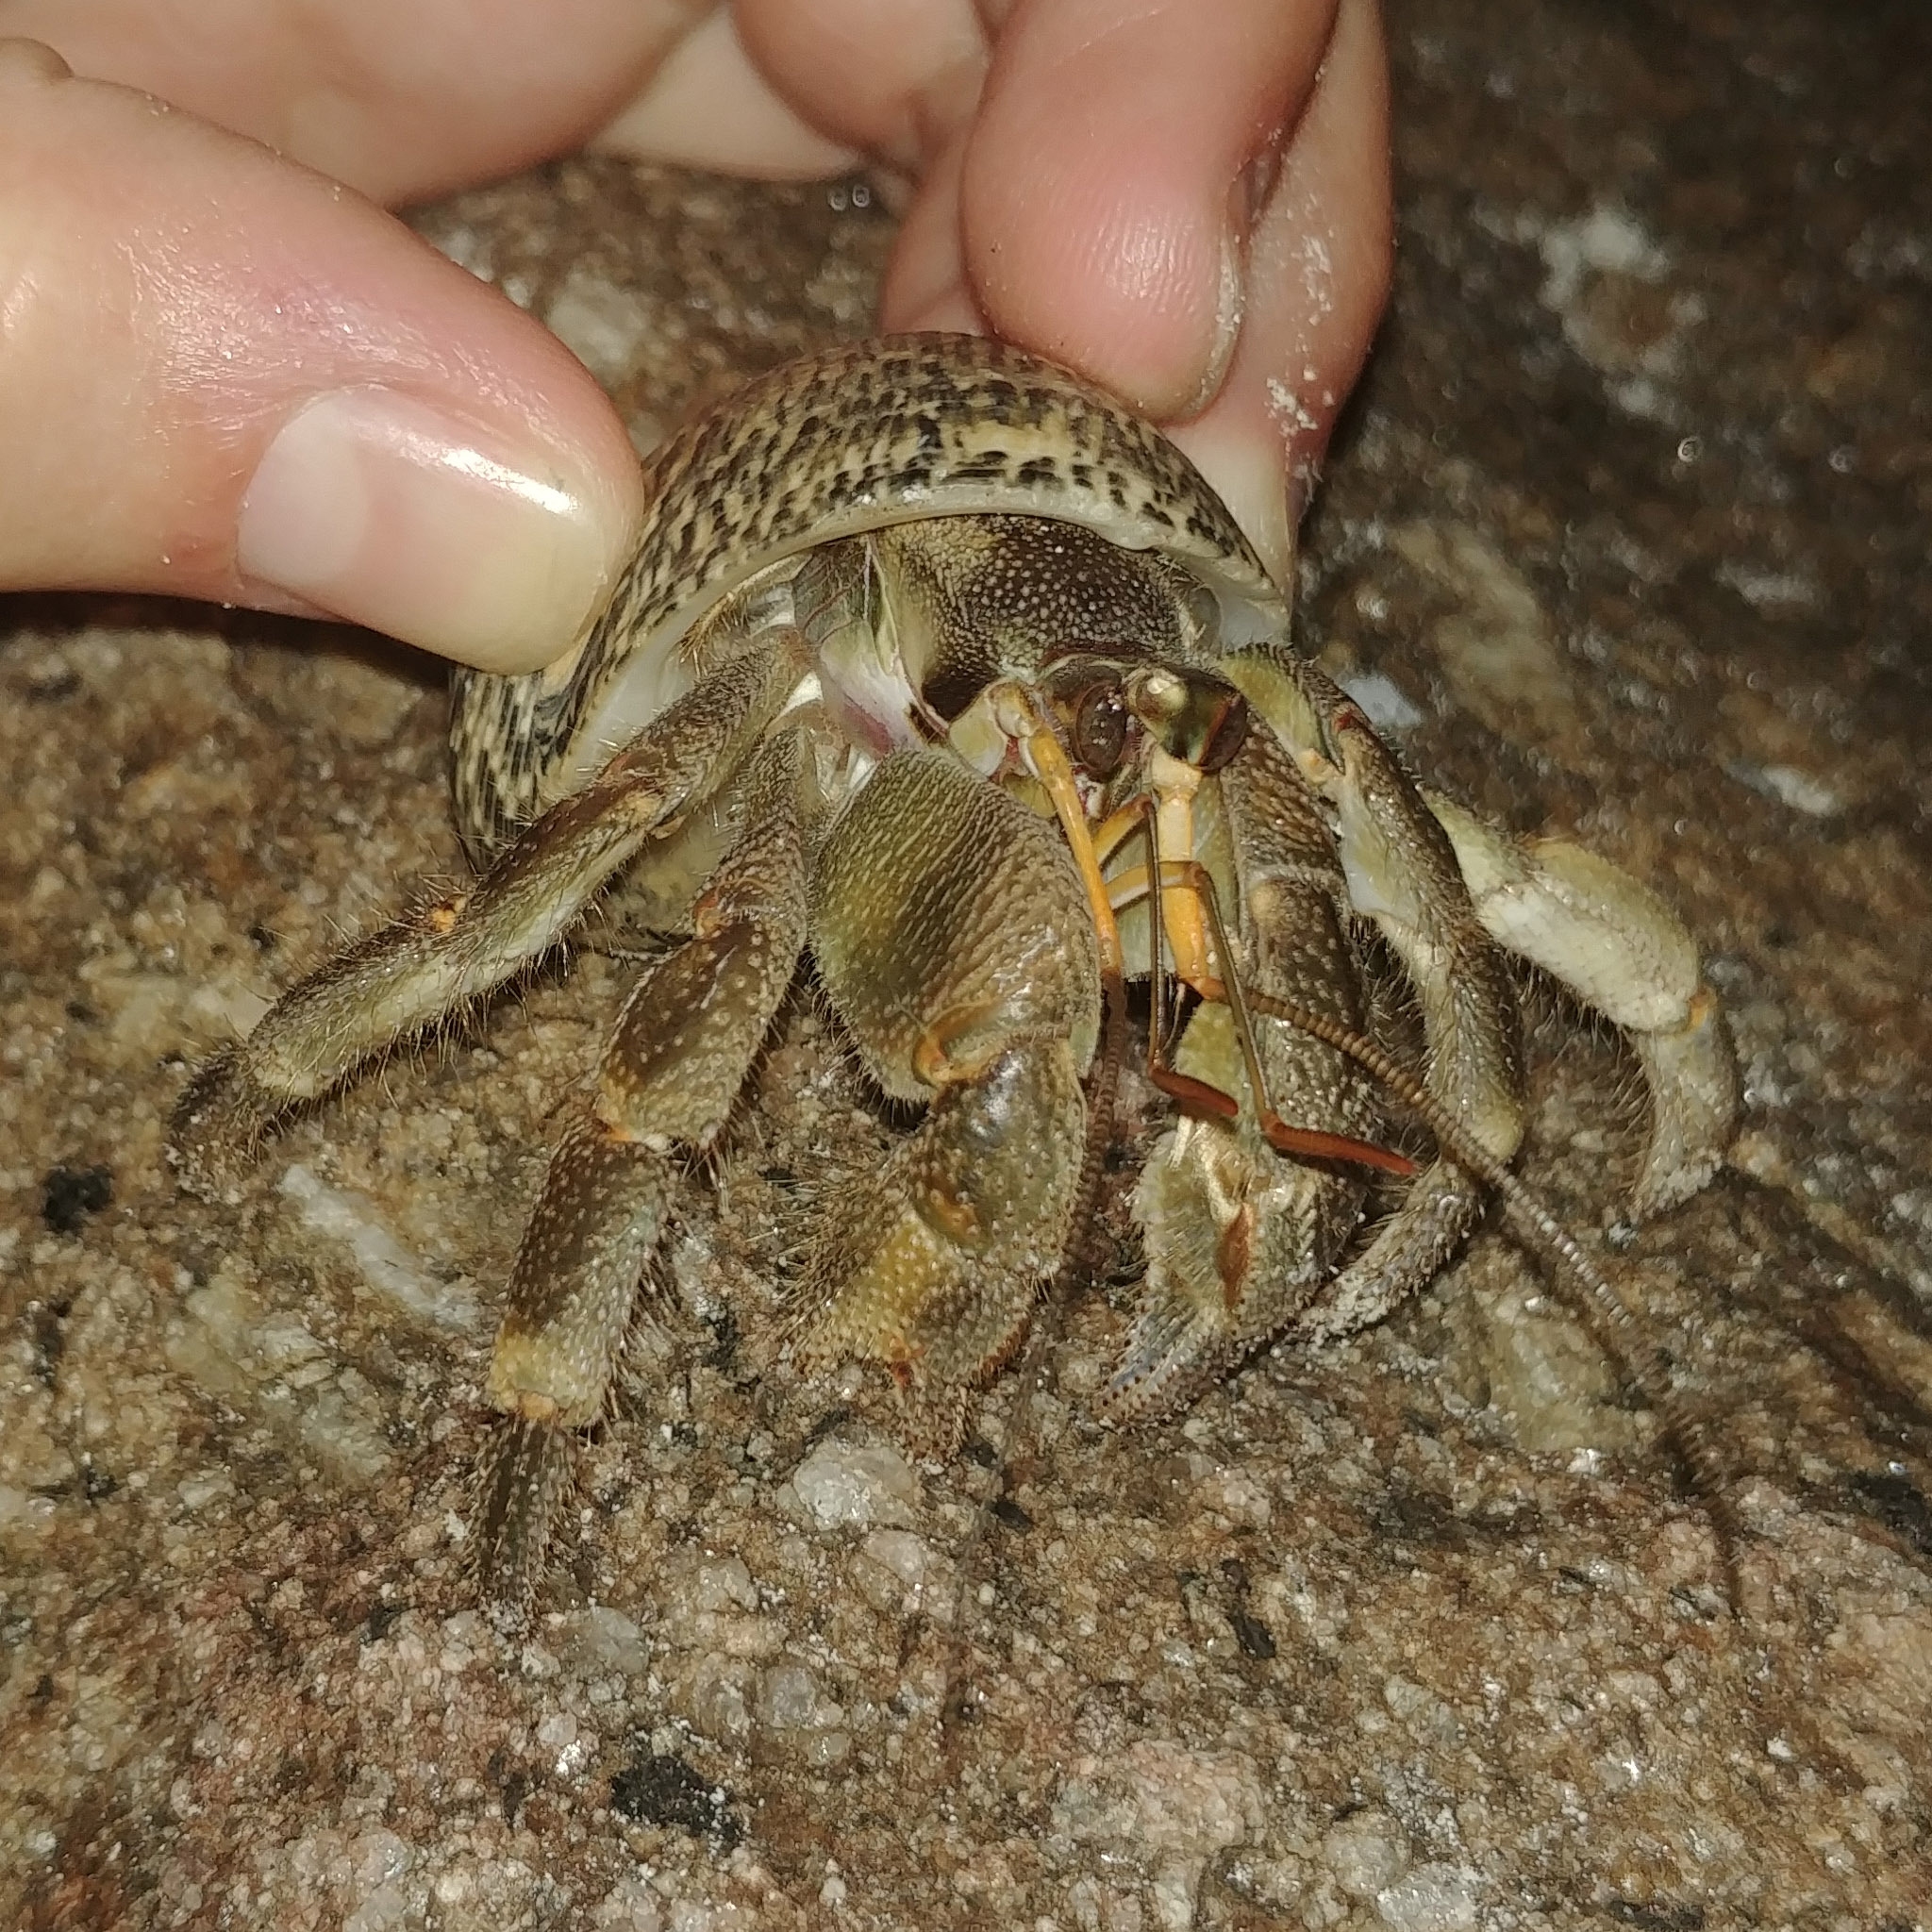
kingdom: Animalia
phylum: Arthropoda
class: Malacostraca
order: Decapoda
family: Coenobitidae
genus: Coenobita
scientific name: Coenobita rugosus
